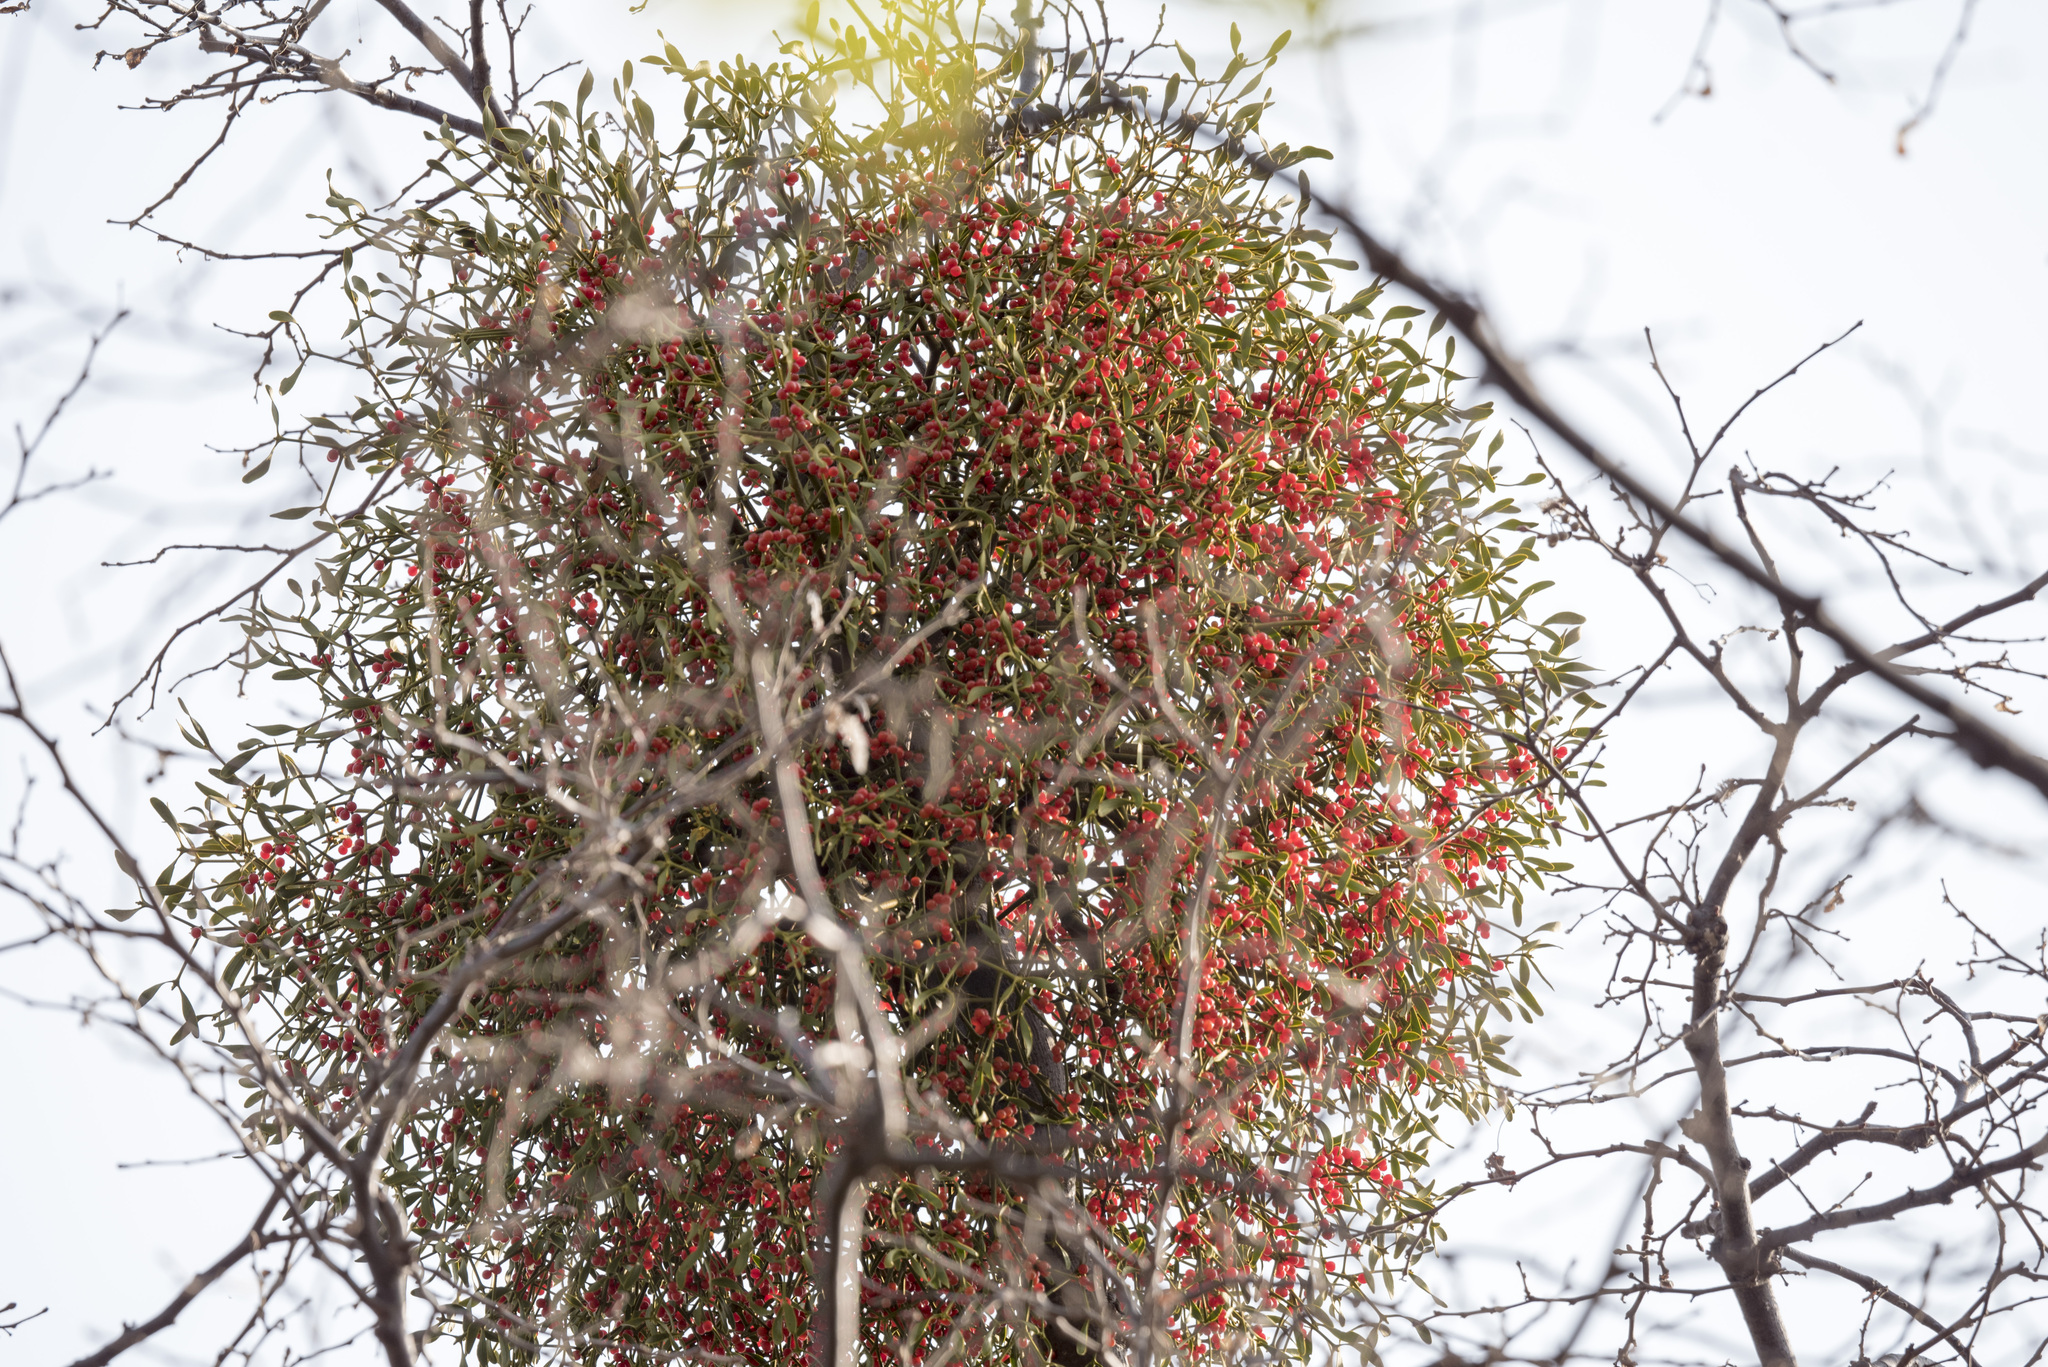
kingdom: Plantae
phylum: Tracheophyta
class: Magnoliopsida
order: Santalales
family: Viscaceae
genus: Viscum
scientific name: Viscum album
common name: Mistletoe
